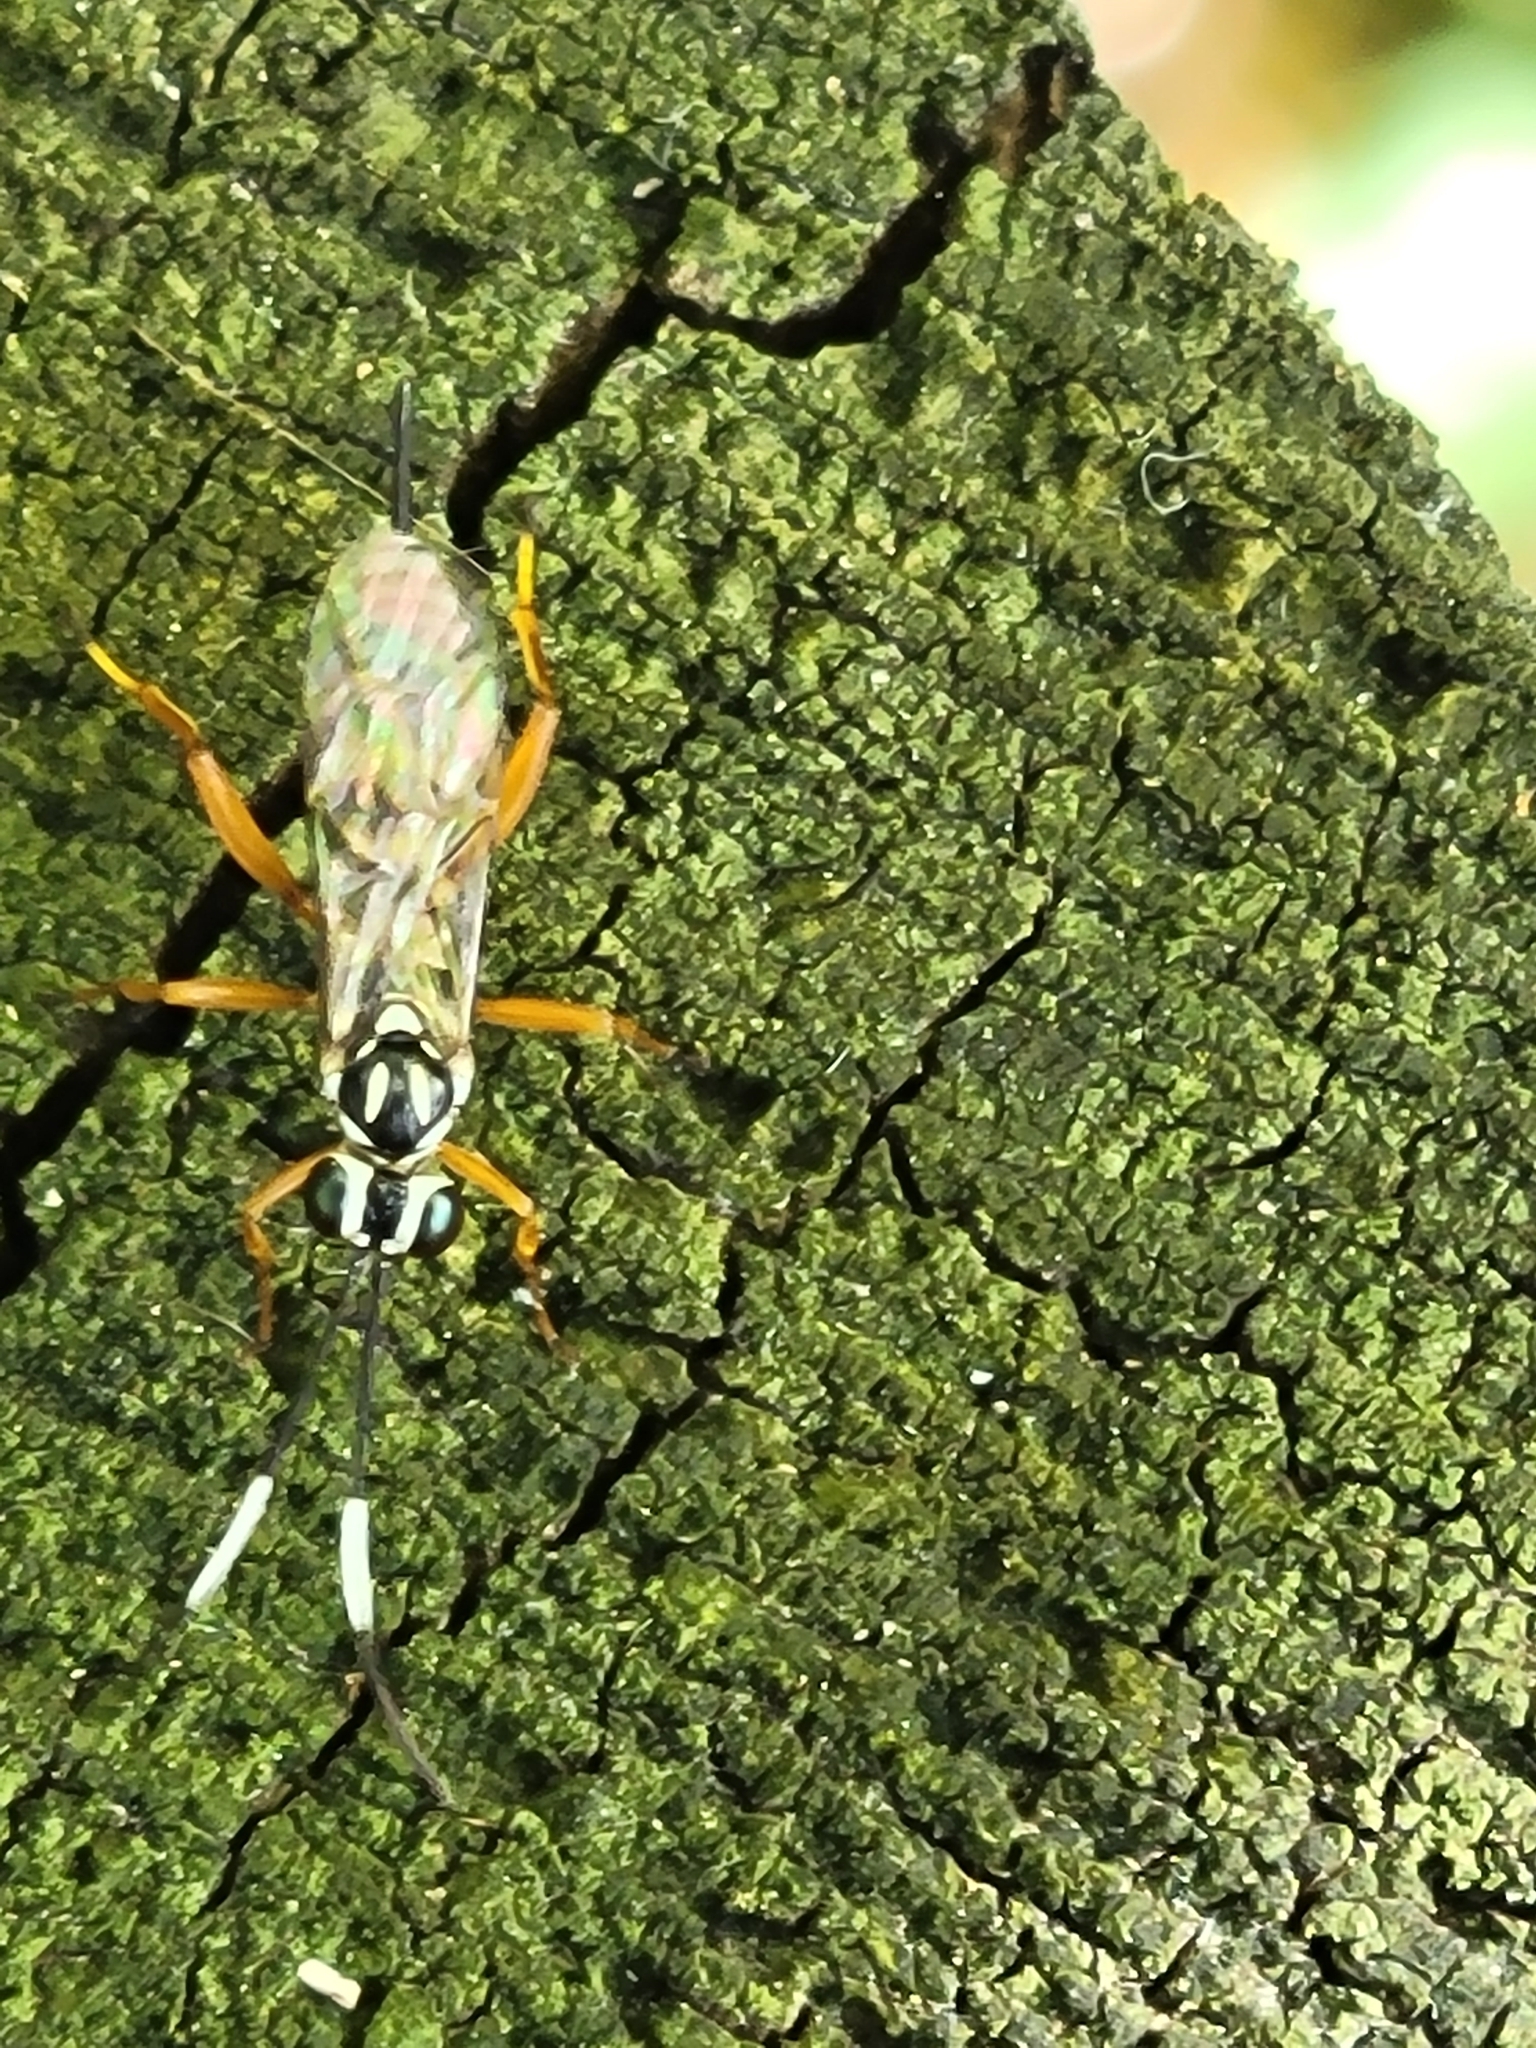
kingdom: Animalia
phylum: Arthropoda
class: Insecta
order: Hymenoptera
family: Ichneumonidae
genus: Lymeon
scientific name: Lymeon orbus
